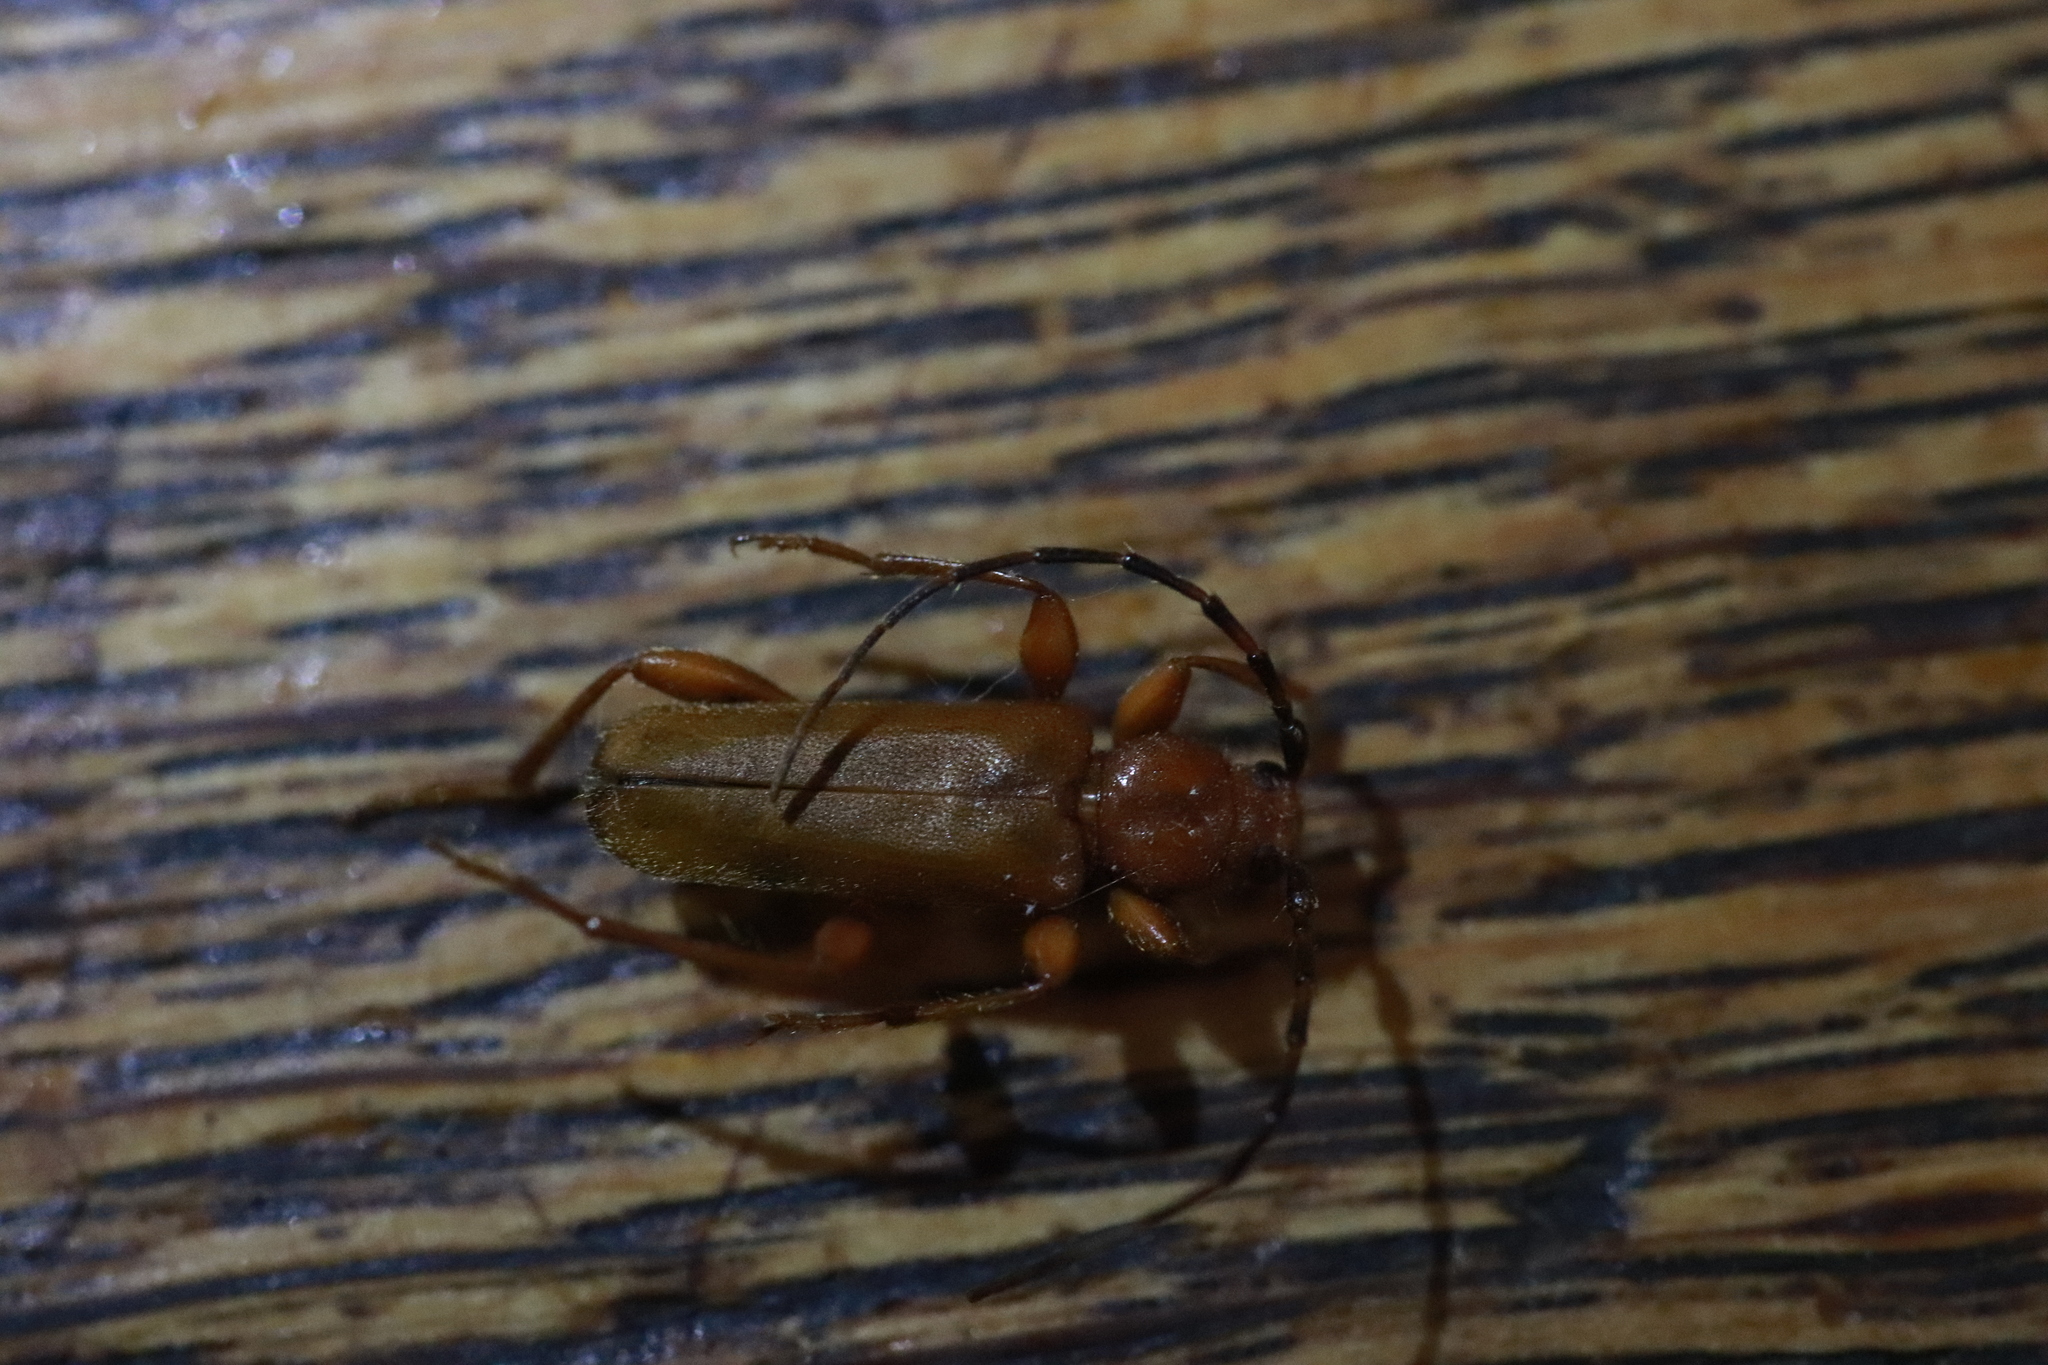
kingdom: Animalia
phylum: Arthropoda
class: Insecta
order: Coleoptera
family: Cerambycidae
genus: Phymatodes
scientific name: Phymatodes testaceus
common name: Long-horned beetle
